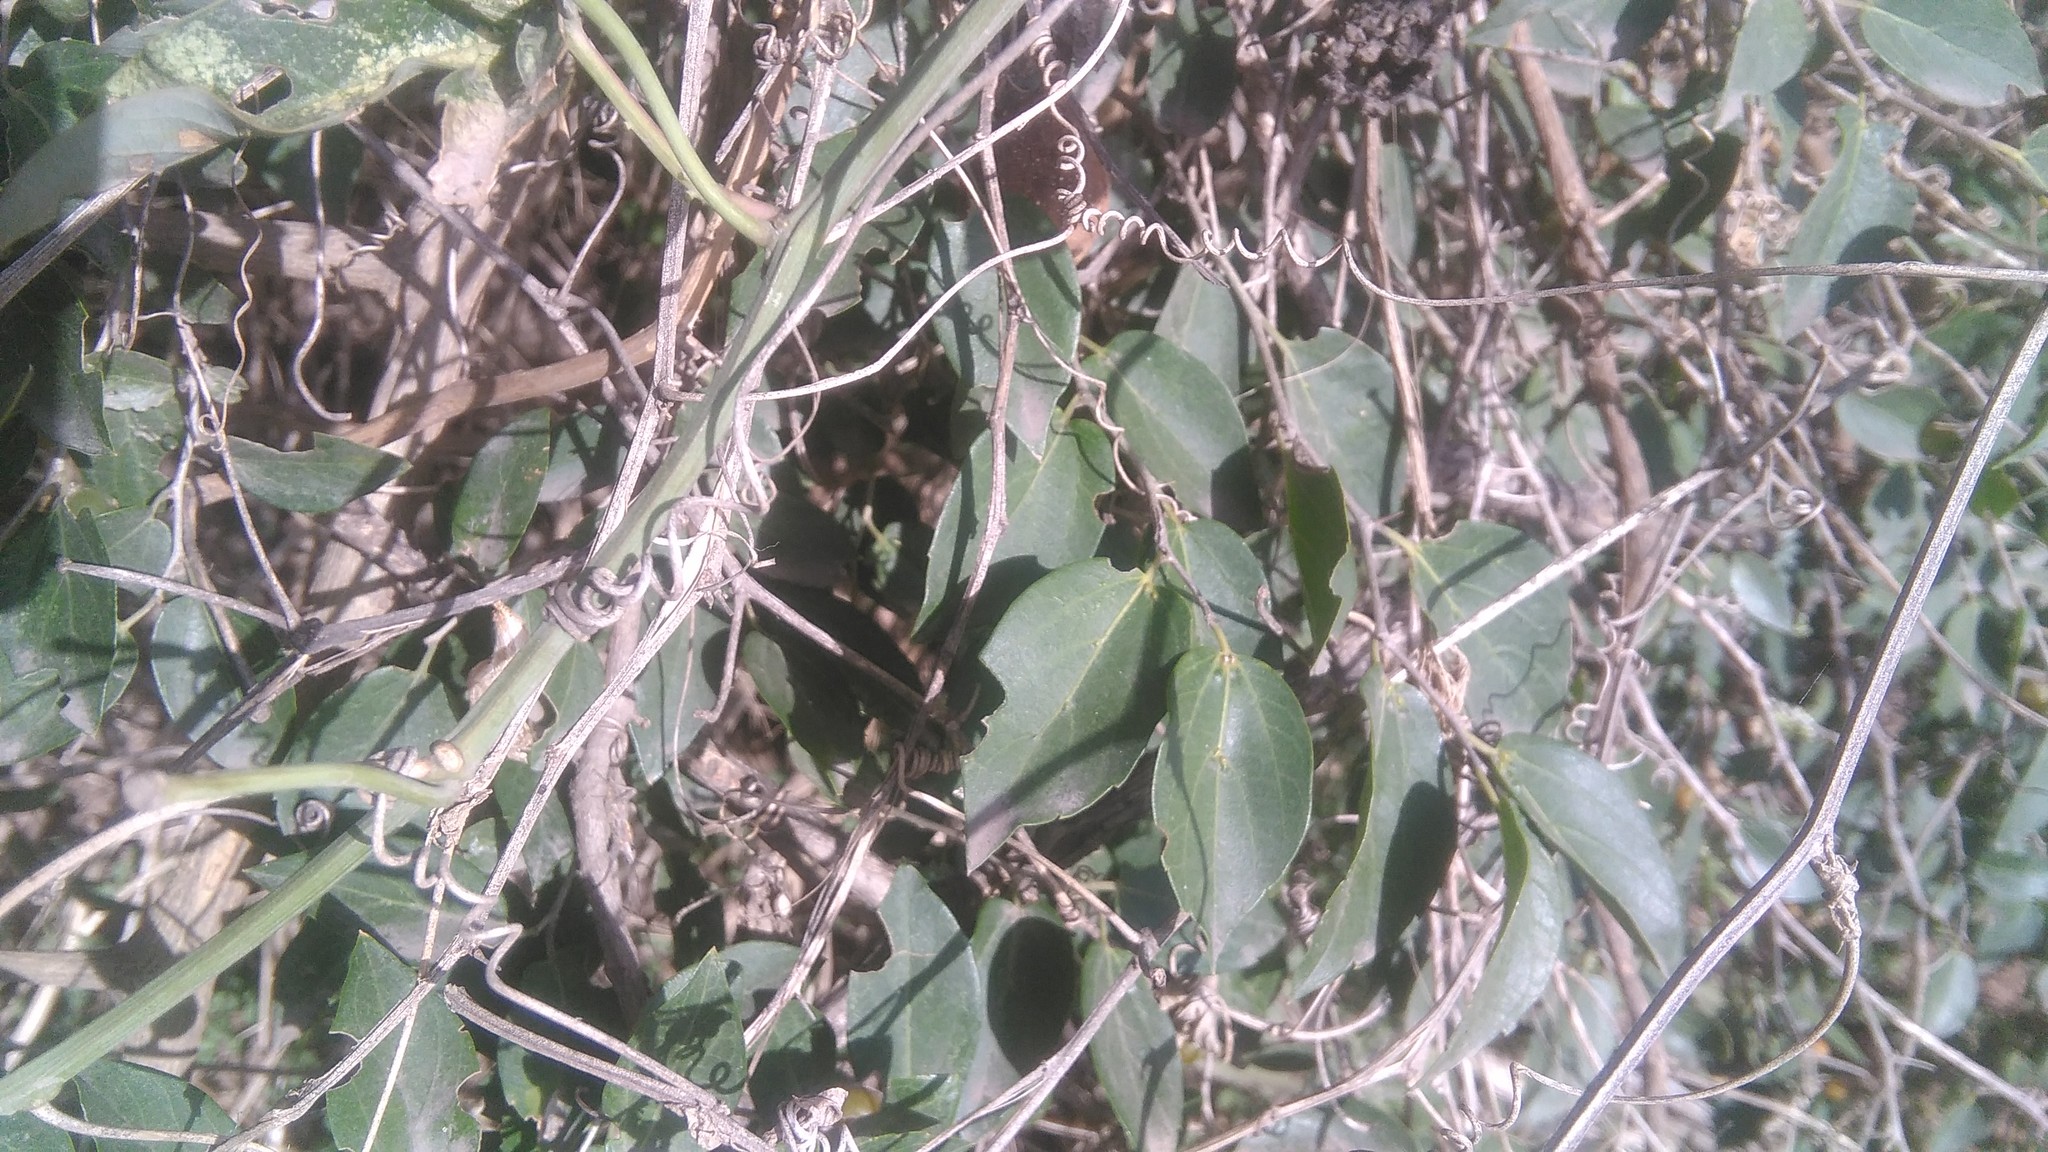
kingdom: Plantae
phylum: Tracheophyta
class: Magnoliopsida
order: Malpighiales
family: Passifloraceae
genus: Passiflora
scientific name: Passiflora caerulea
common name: Blue passionflower
